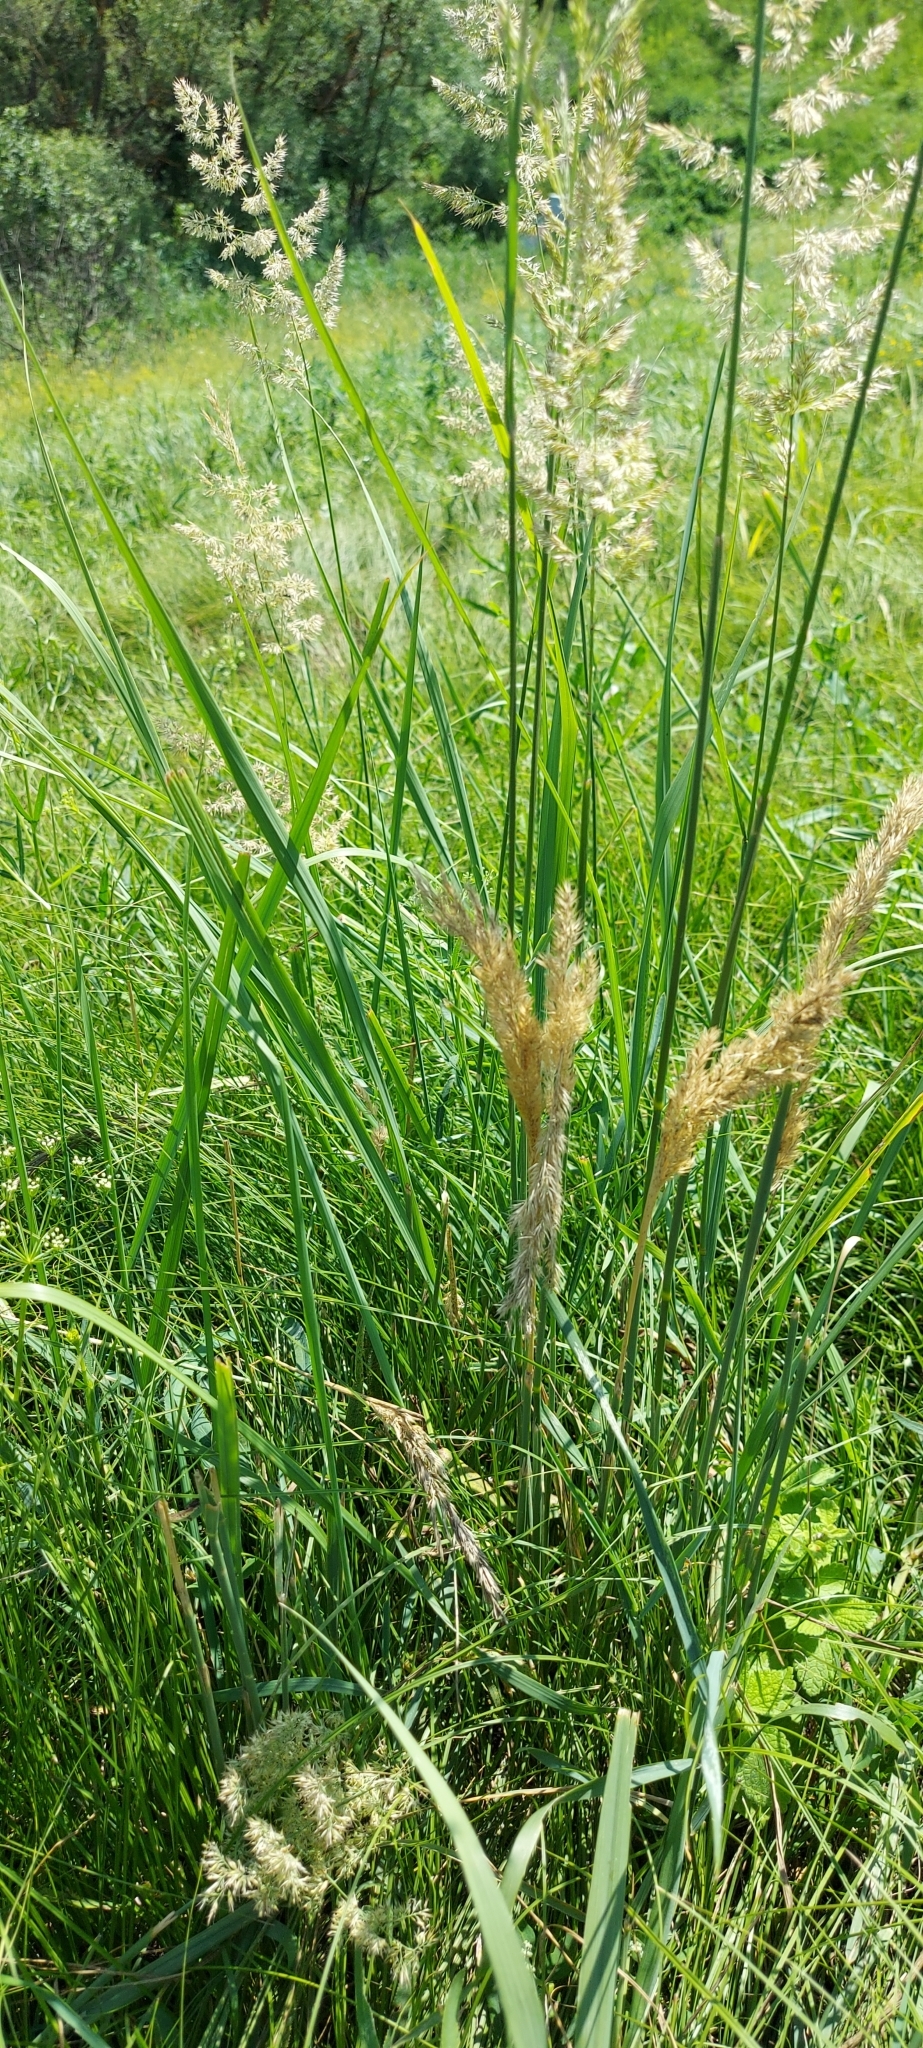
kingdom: Plantae
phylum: Tracheophyta
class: Liliopsida
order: Poales
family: Poaceae
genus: Calamagrostis
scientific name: Calamagrostis epigejos
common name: Wood small-reed
